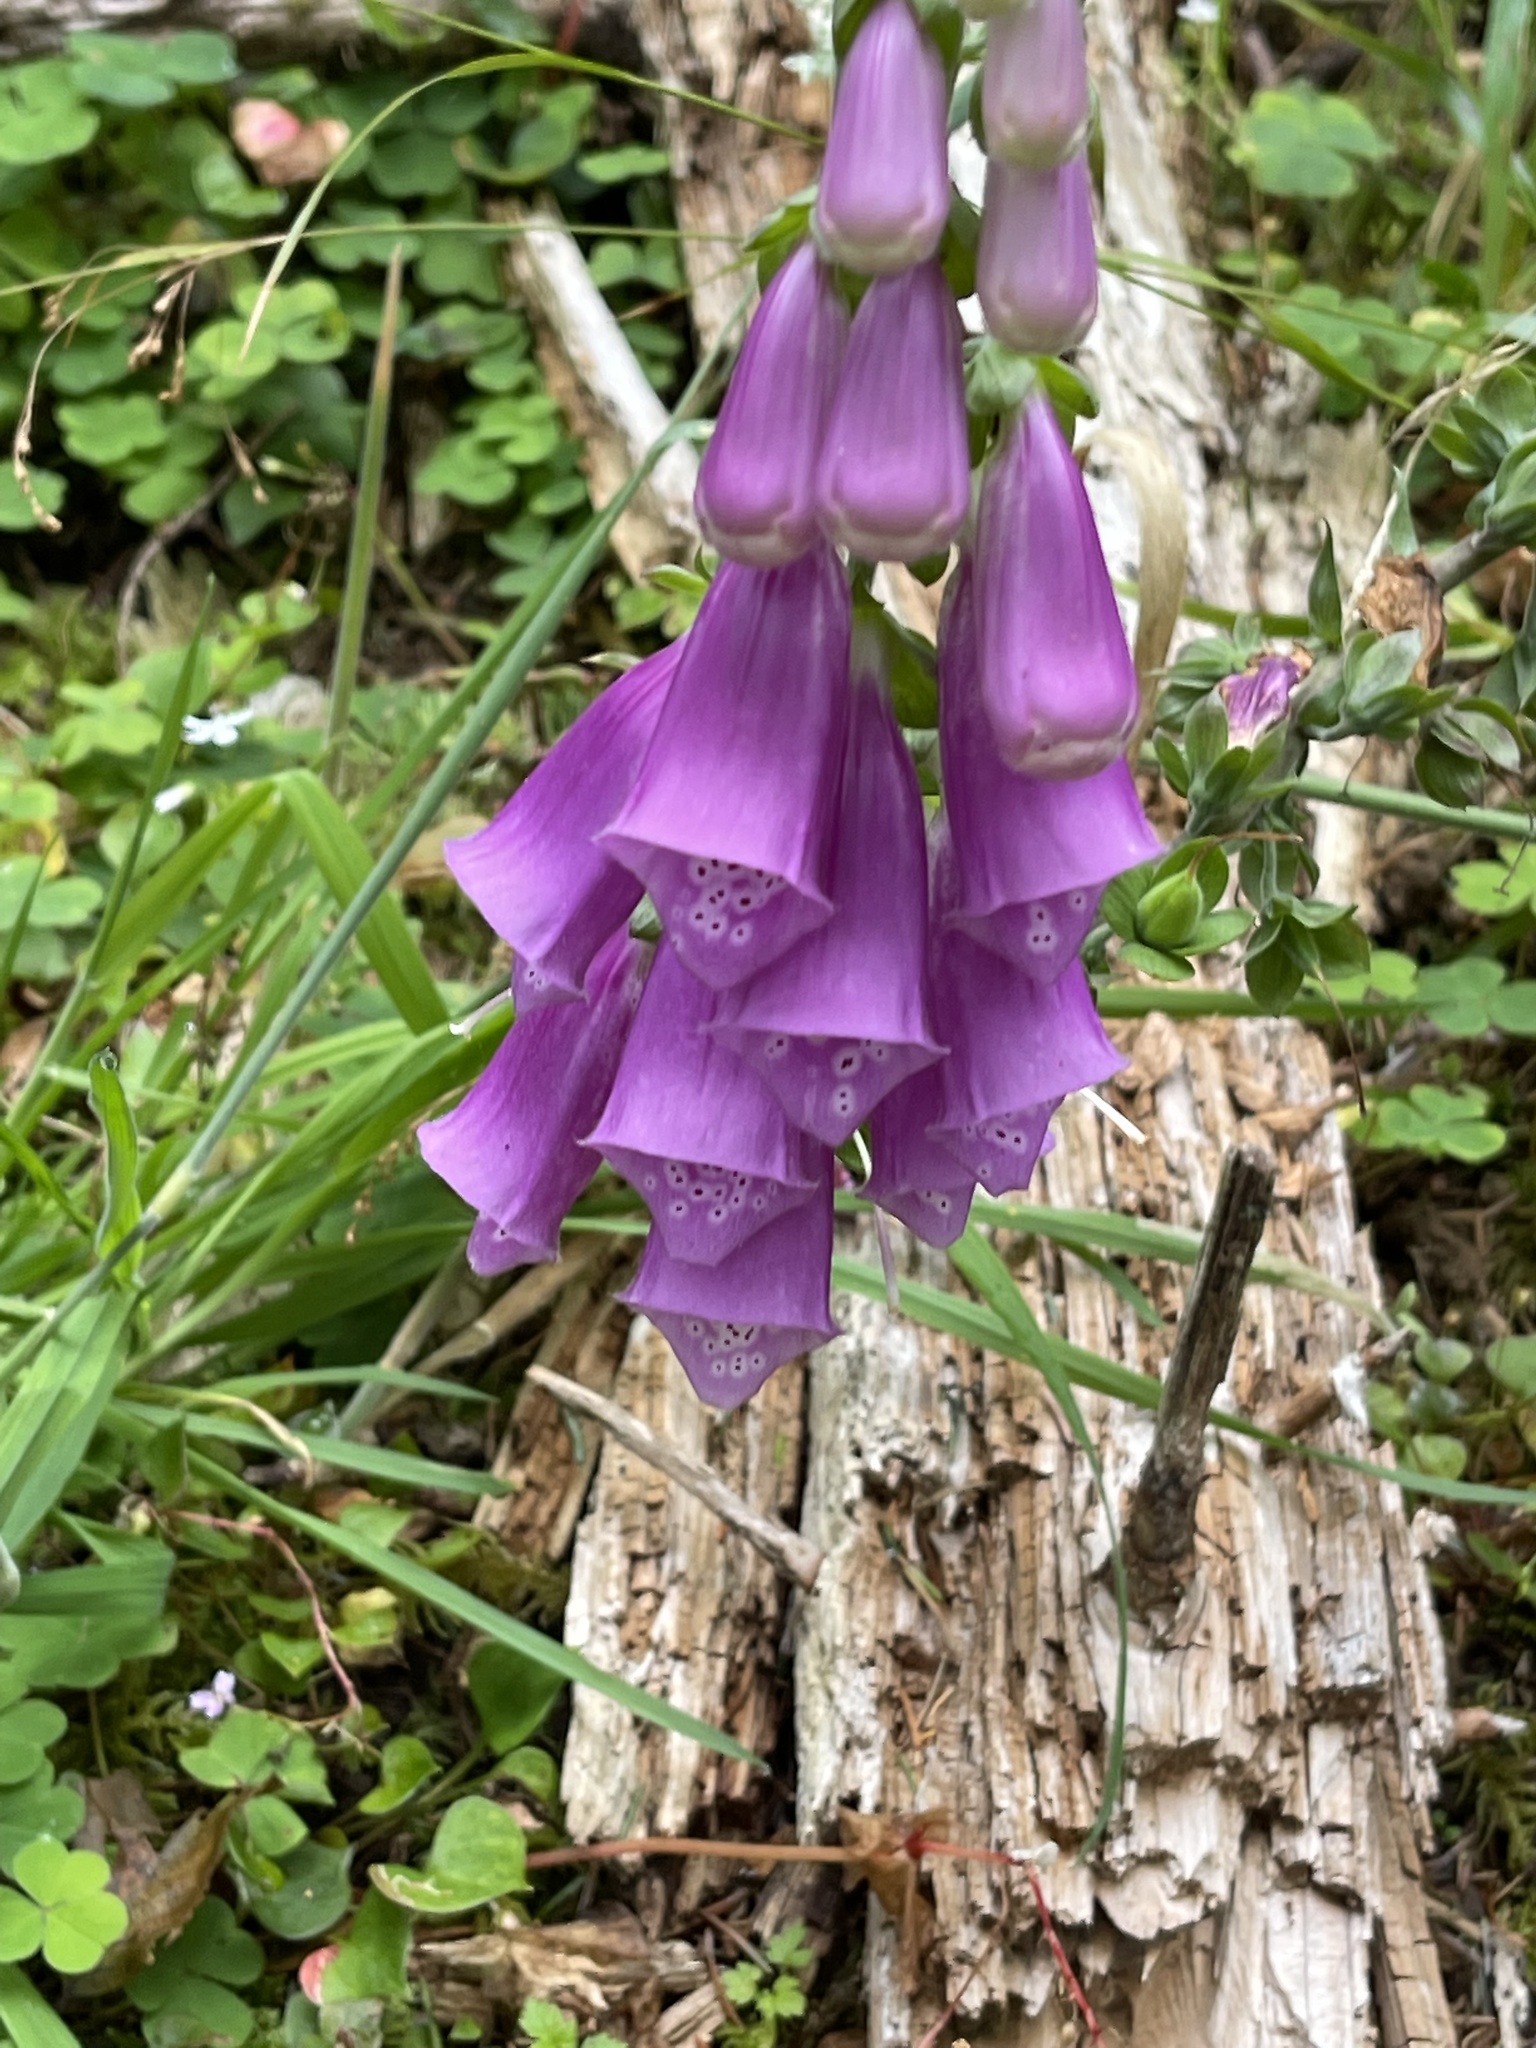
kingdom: Plantae
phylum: Tracheophyta
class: Magnoliopsida
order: Lamiales
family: Plantaginaceae
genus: Digitalis
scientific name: Digitalis purpurea
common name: Foxglove
